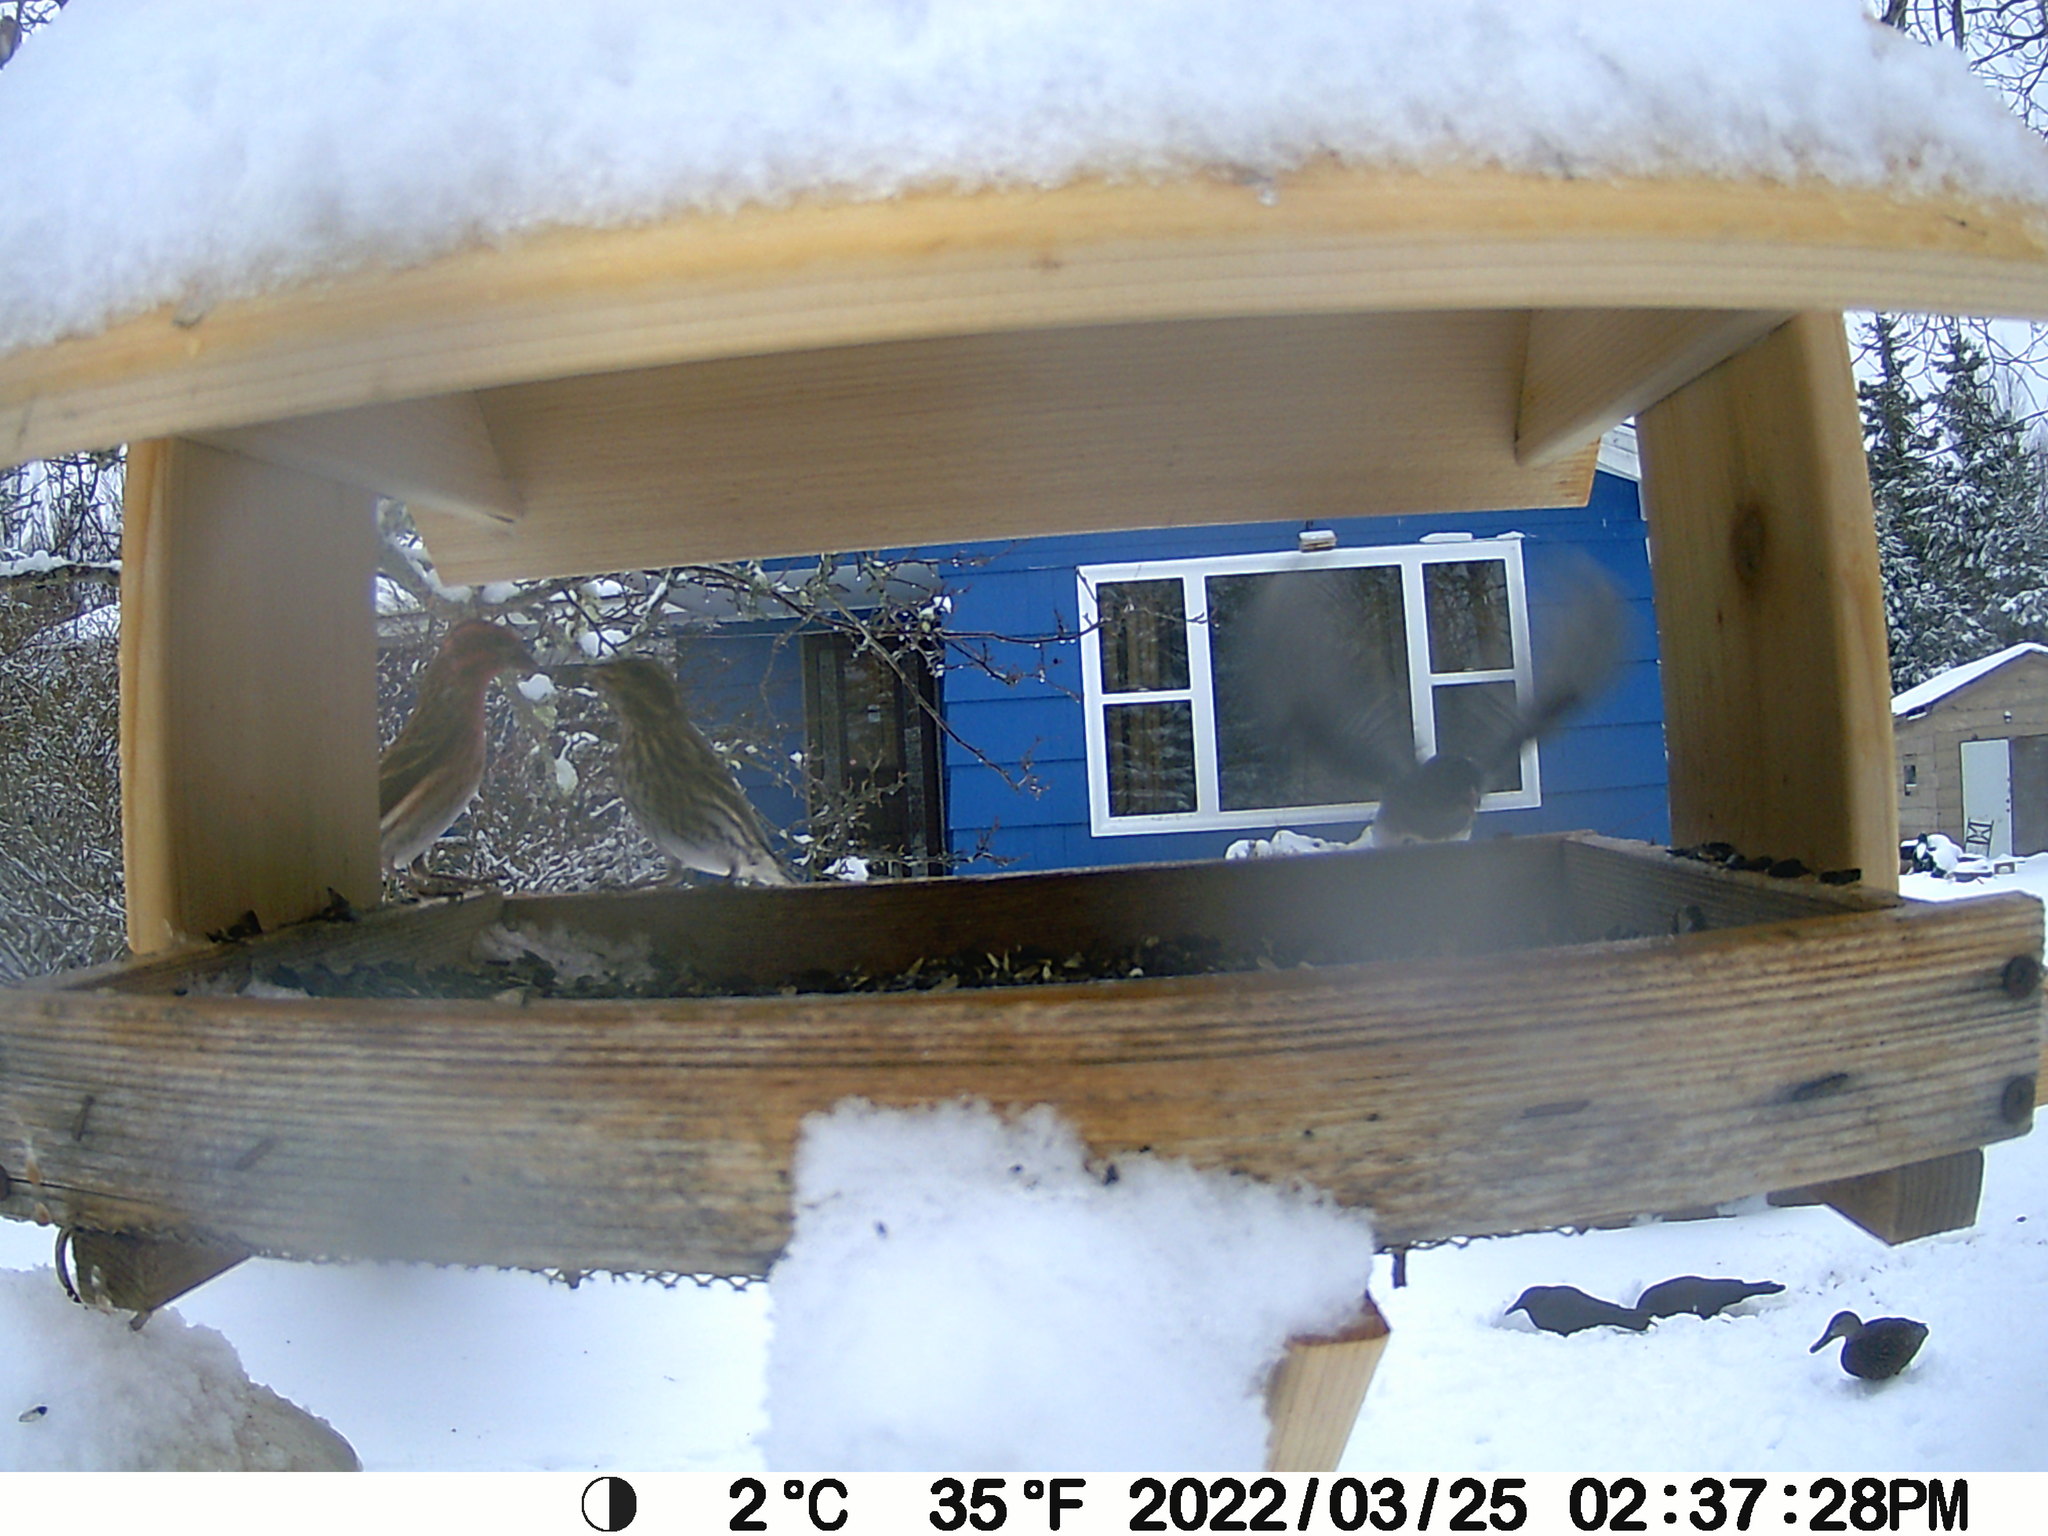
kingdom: Animalia
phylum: Chordata
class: Aves
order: Passeriformes
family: Fringillidae
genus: Haemorhous
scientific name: Haemorhous purpureus
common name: Purple finch
